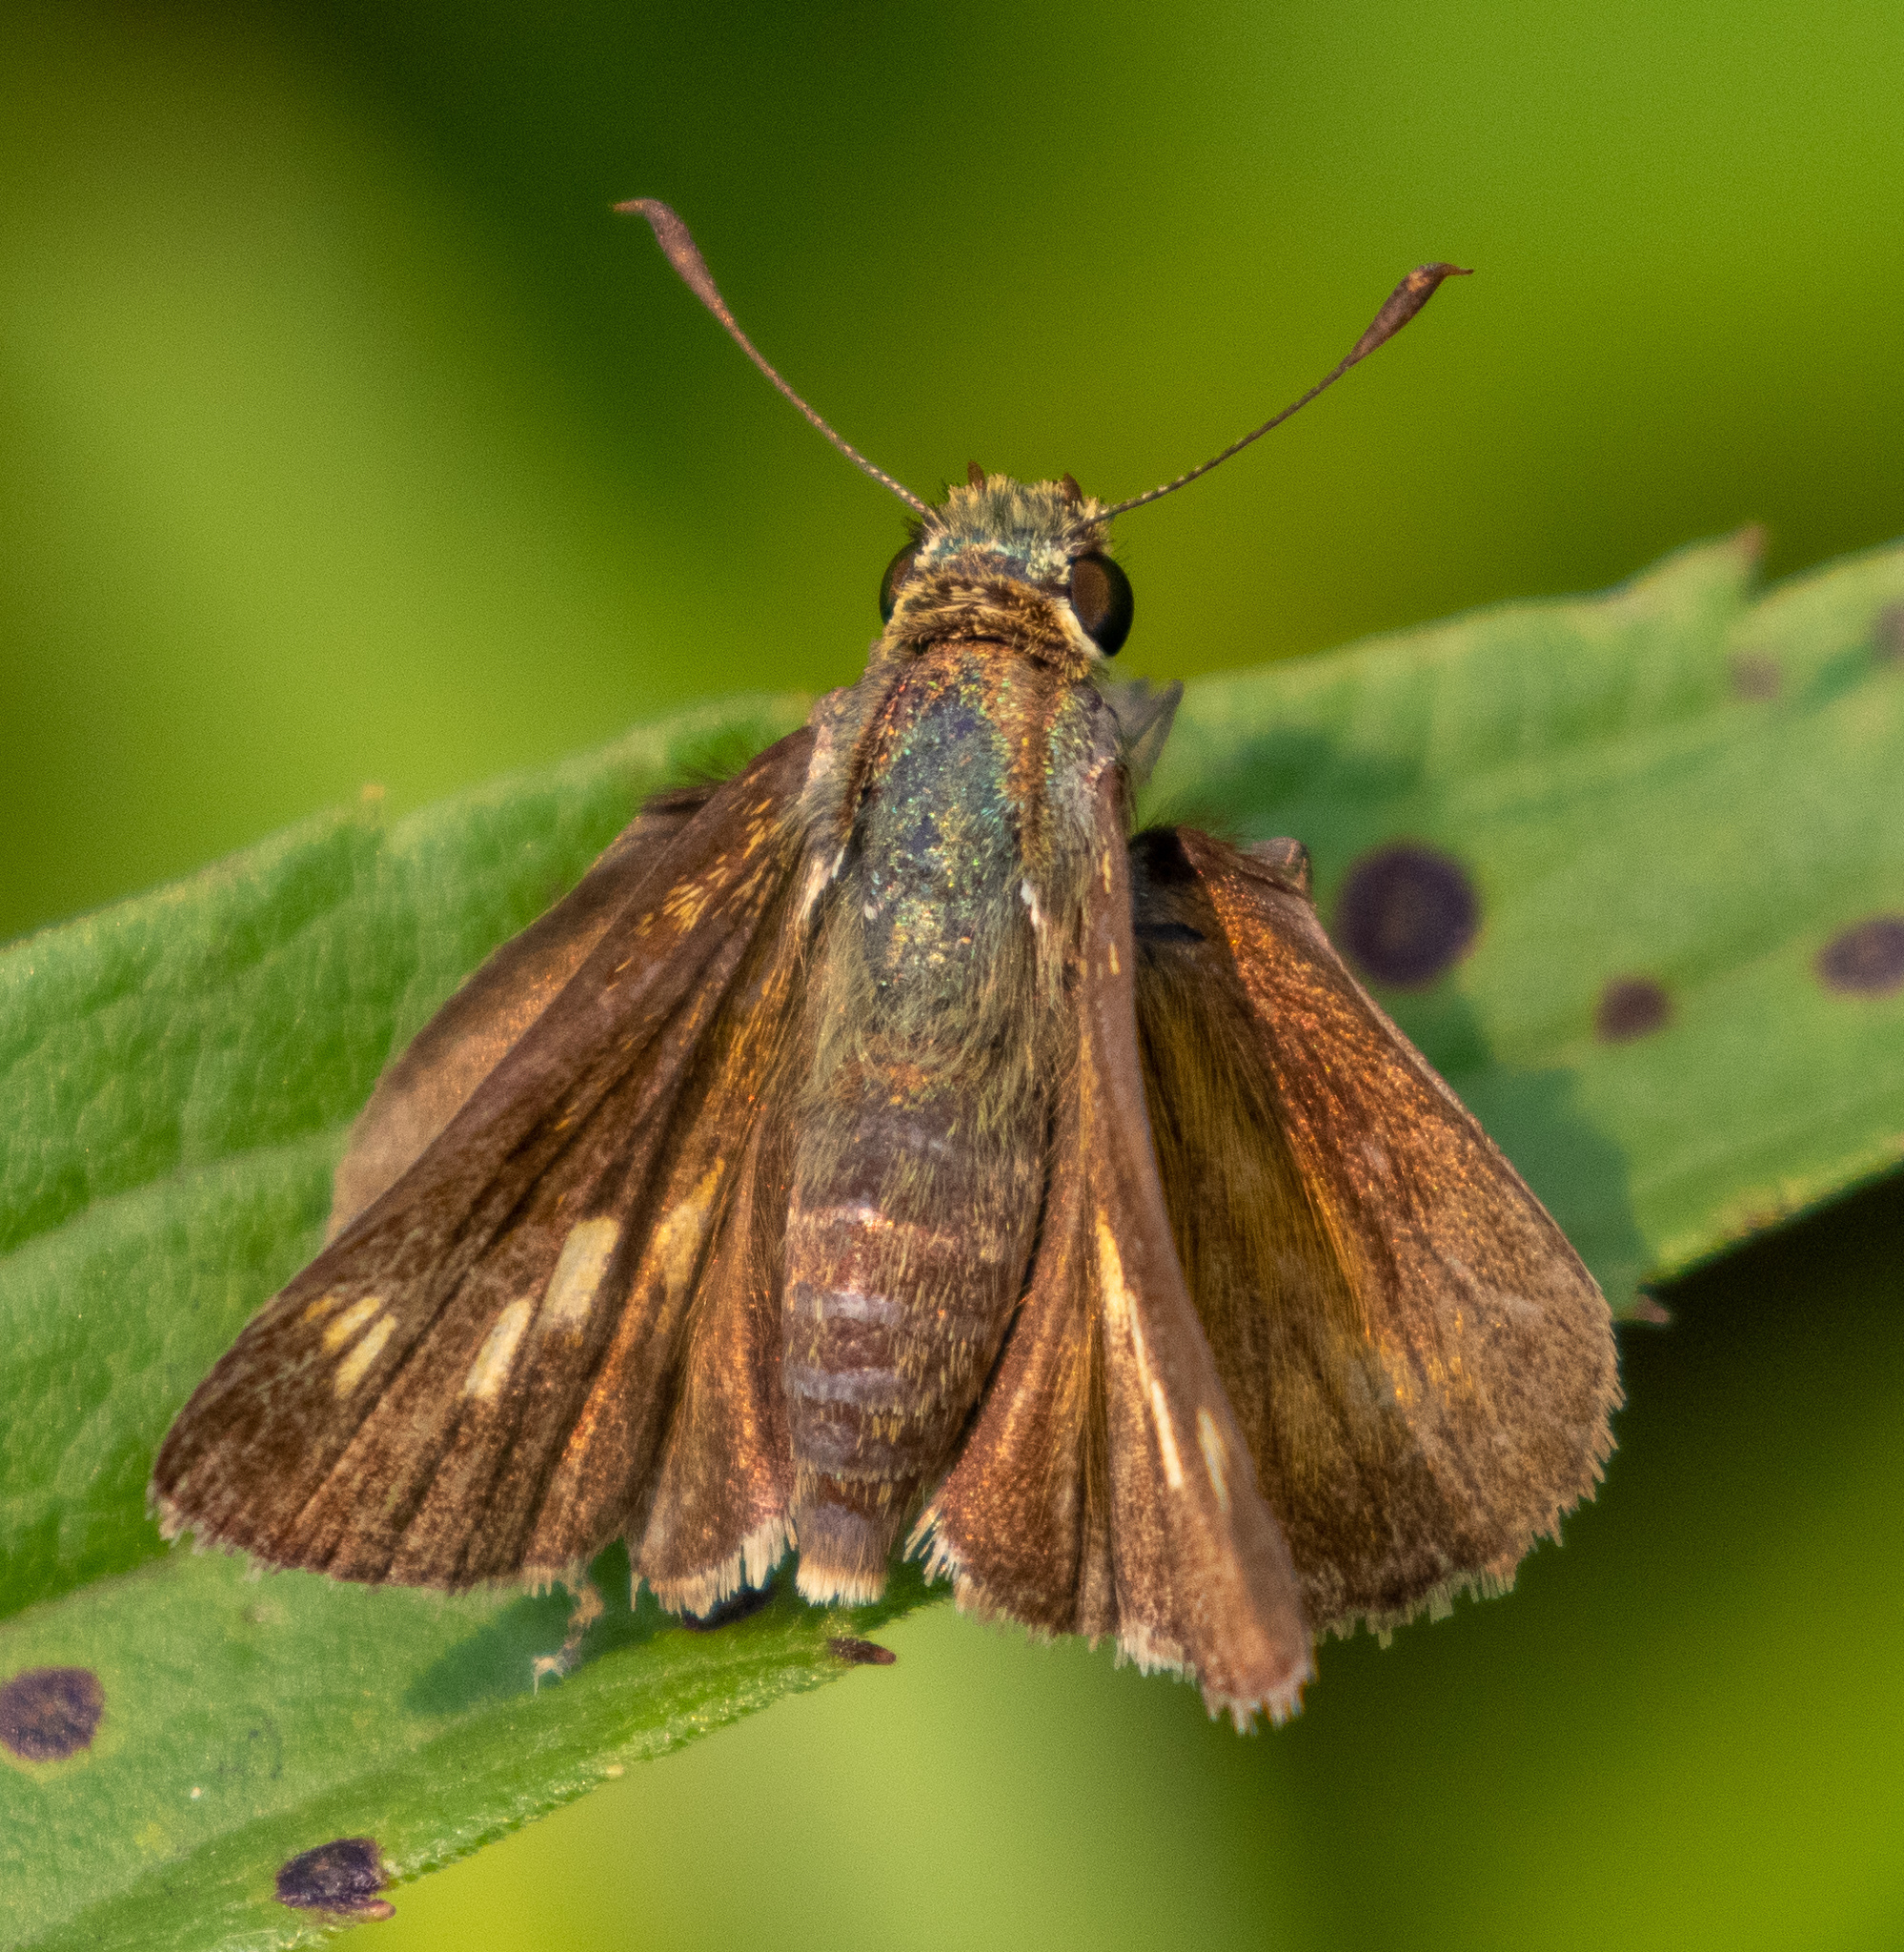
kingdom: Animalia
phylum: Arthropoda
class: Insecta
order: Lepidoptera
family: Hesperiidae
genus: Polites
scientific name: Polites egeremet
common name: Northern broken-dash
